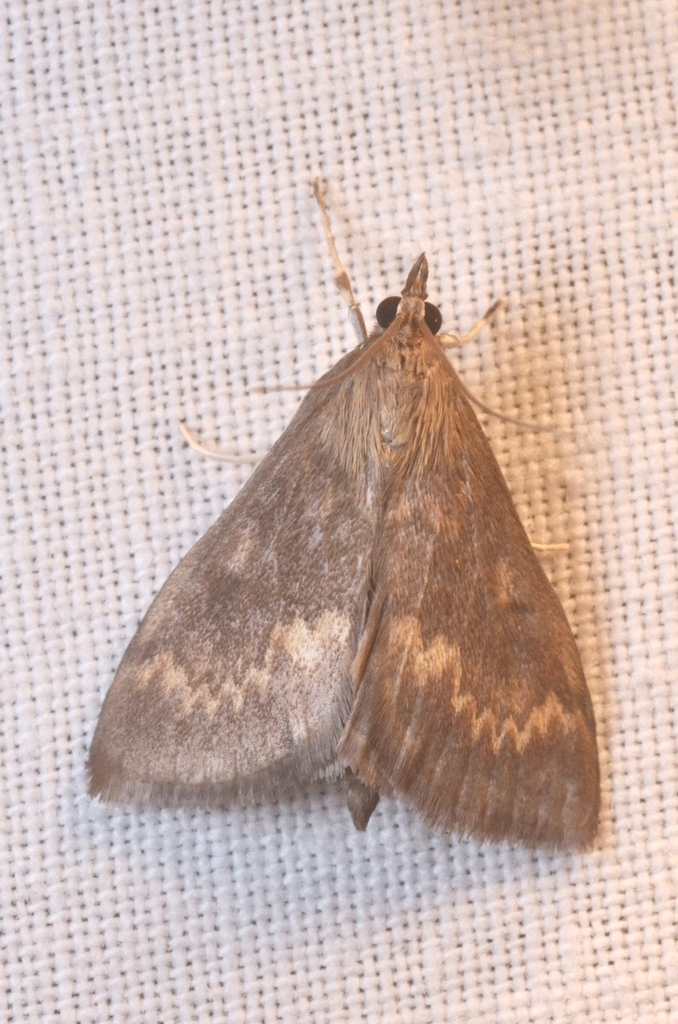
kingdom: Animalia
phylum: Arthropoda
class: Insecta
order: Lepidoptera
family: Crambidae
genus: Ostrinia
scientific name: Ostrinia nubilalis
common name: European corn borer
